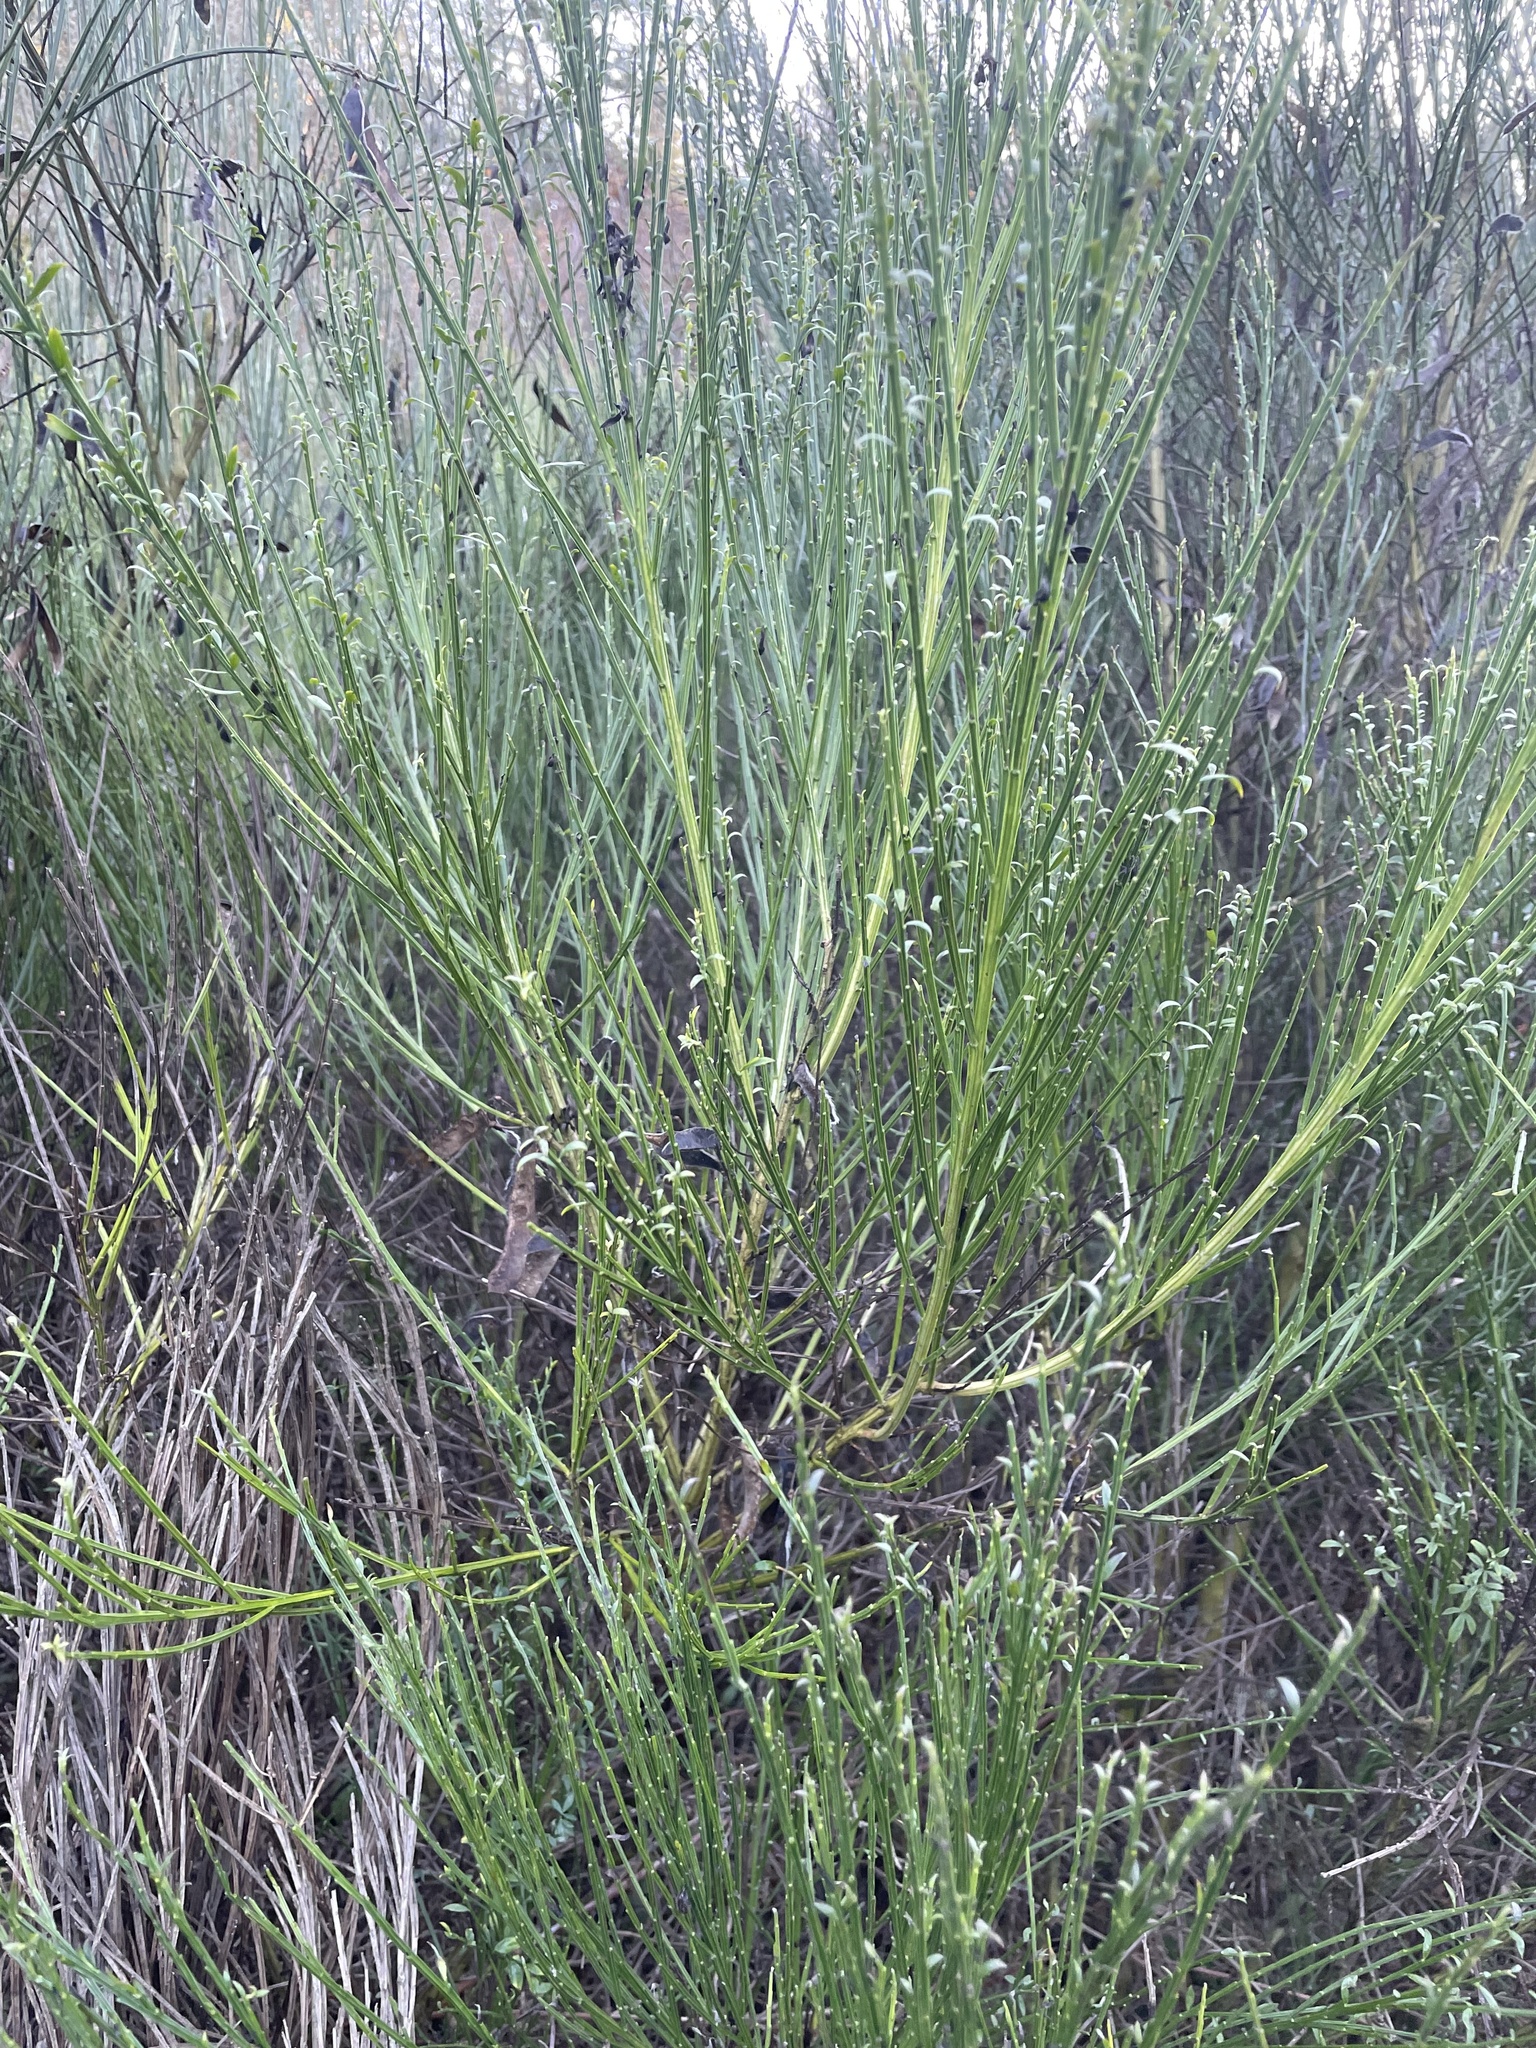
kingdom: Plantae
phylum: Tracheophyta
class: Magnoliopsida
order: Fabales
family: Fabaceae
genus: Cytisus
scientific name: Cytisus scoparius
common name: Scotch broom
